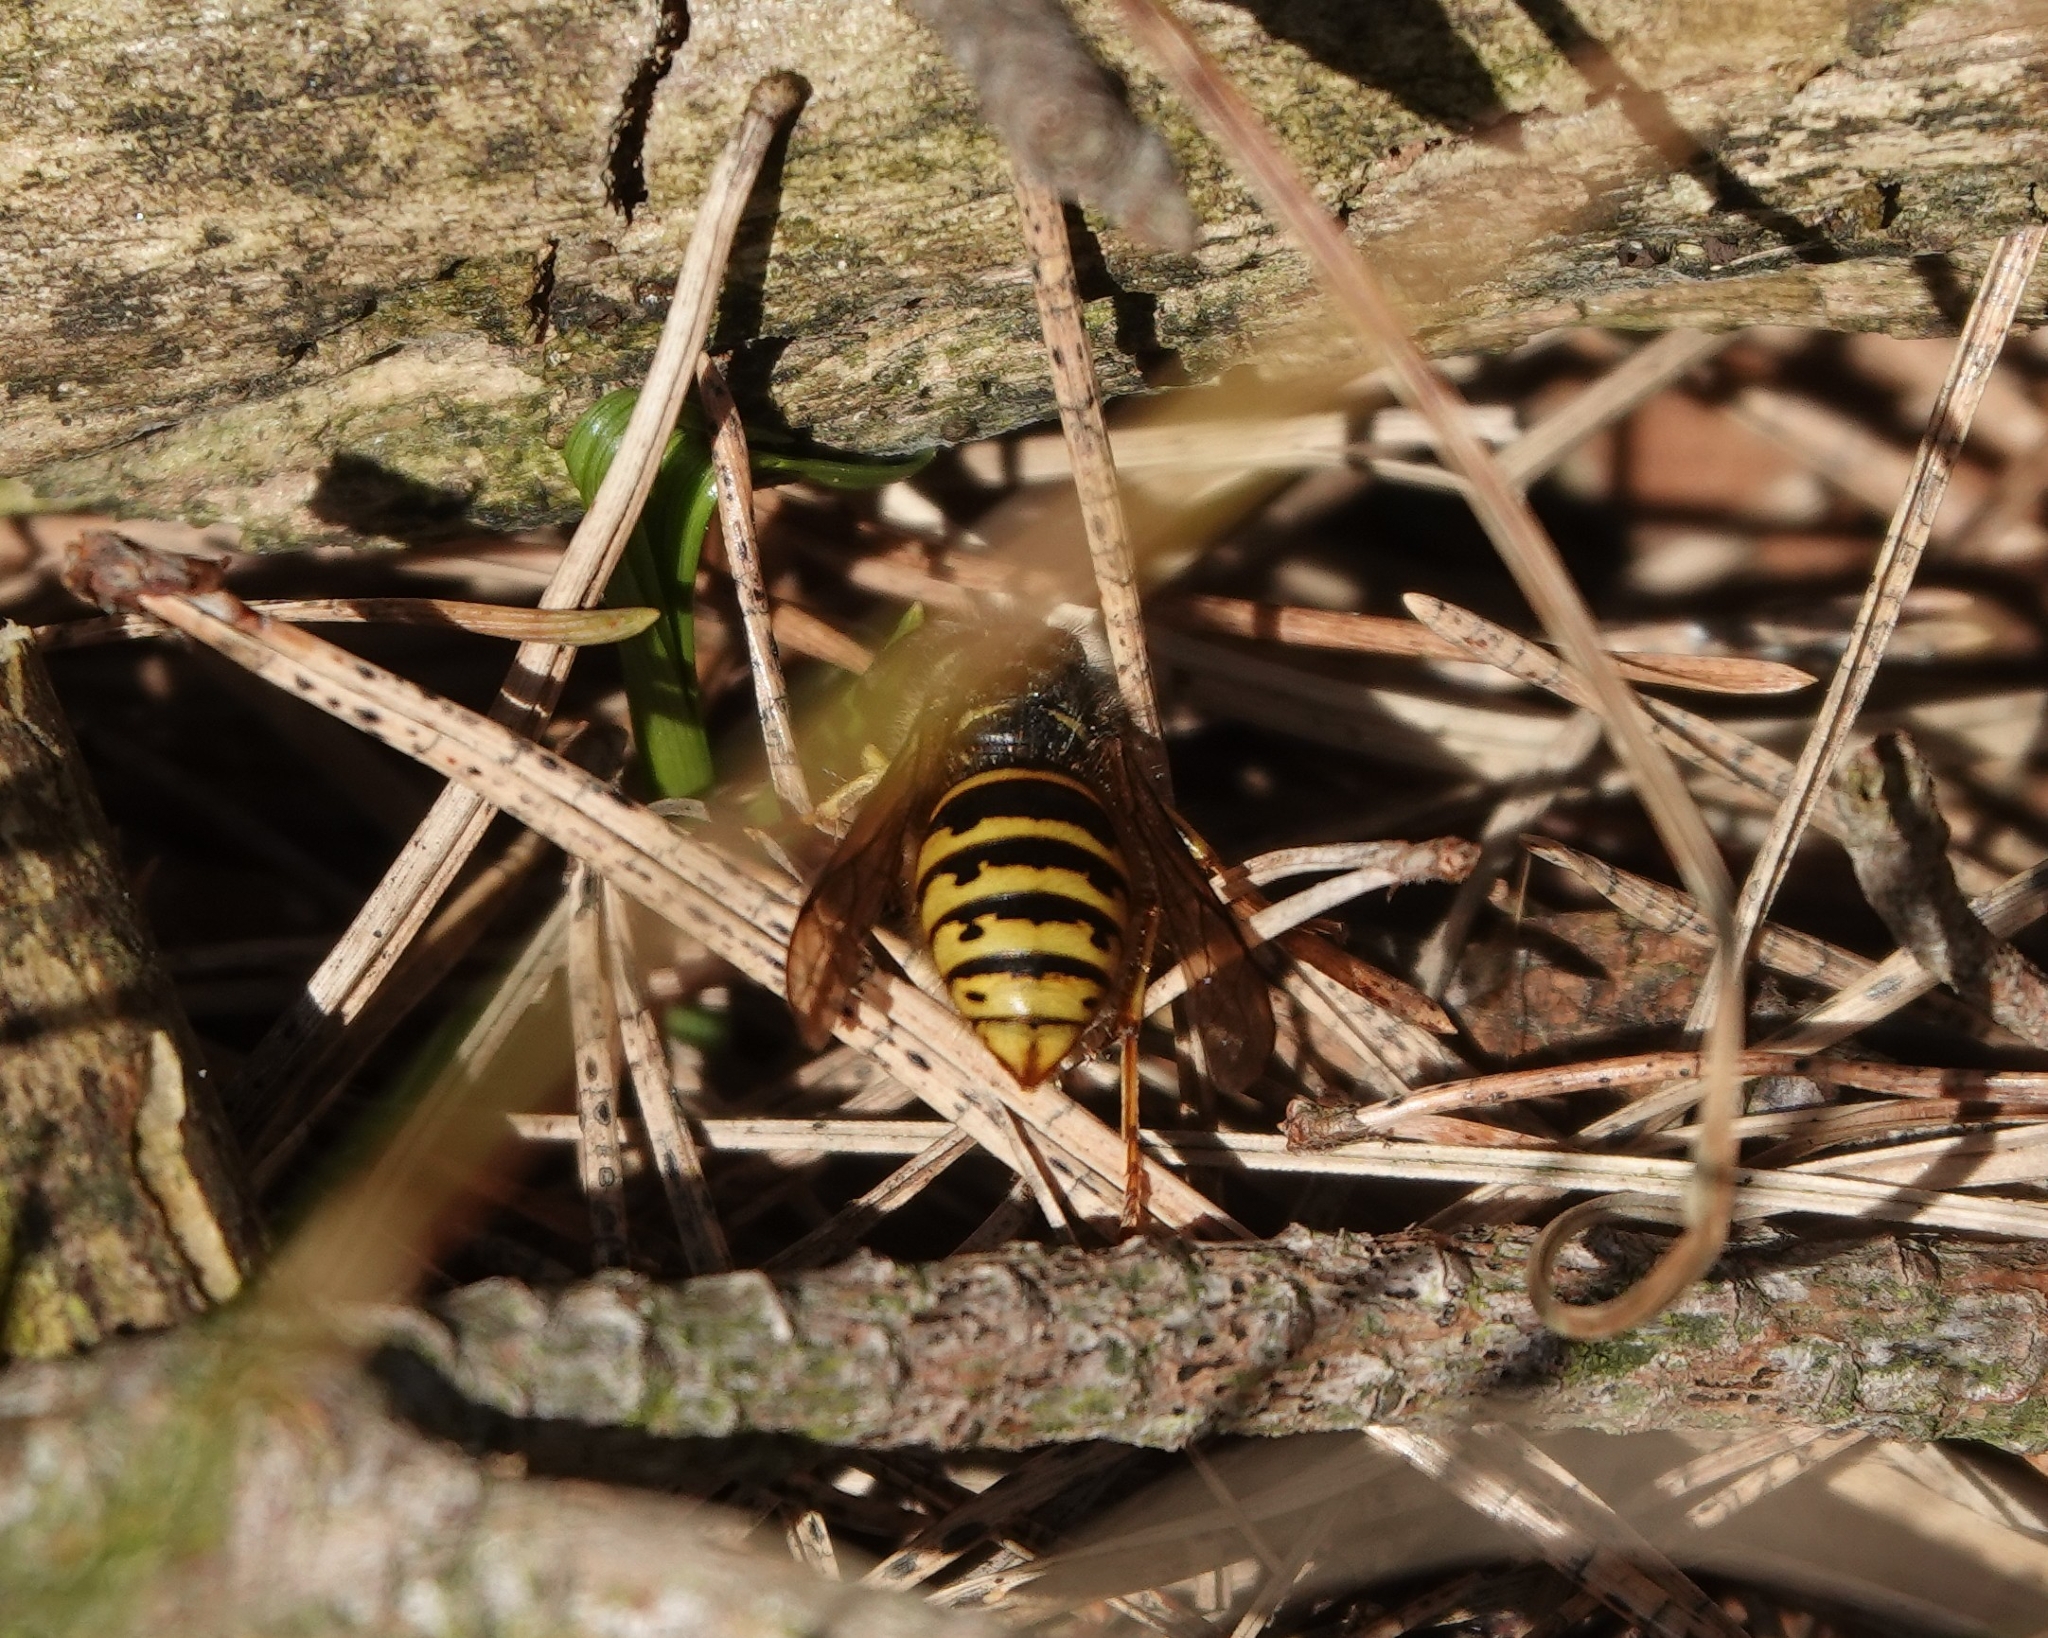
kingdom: Animalia
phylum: Arthropoda
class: Insecta
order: Hymenoptera
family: Vespidae
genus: Dolichovespula
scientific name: Dolichovespula saxonica
